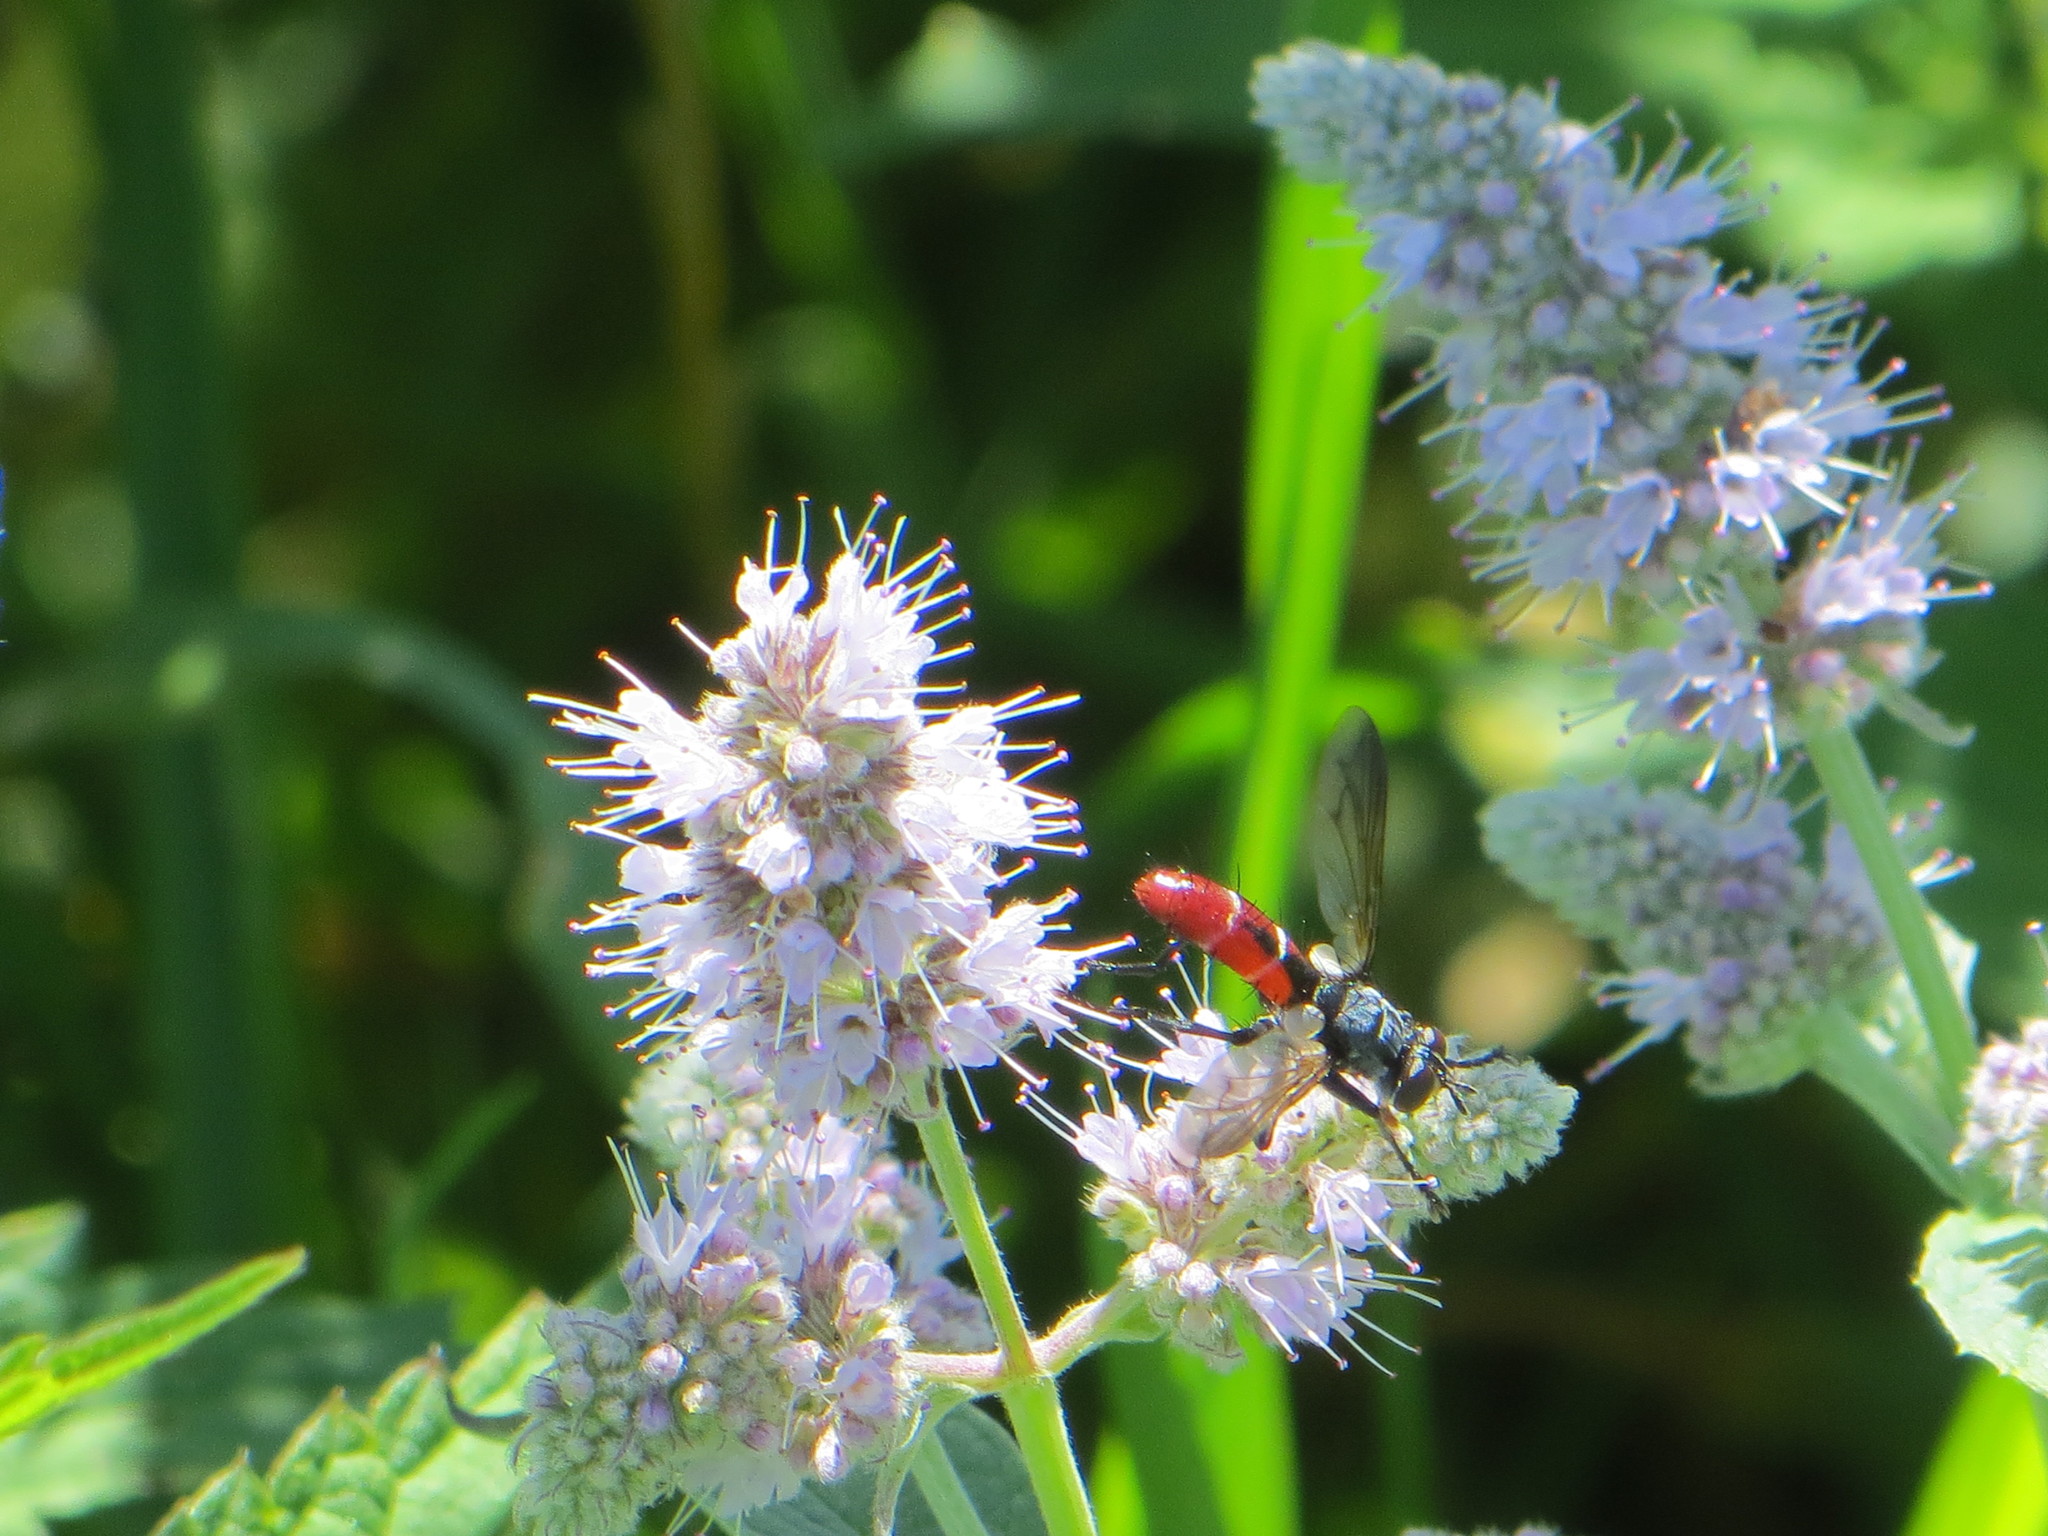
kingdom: Animalia
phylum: Arthropoda
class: Insecta
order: Diptera
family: Tachinidae
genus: Cylindromyia
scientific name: Cylindromyia bicolor
